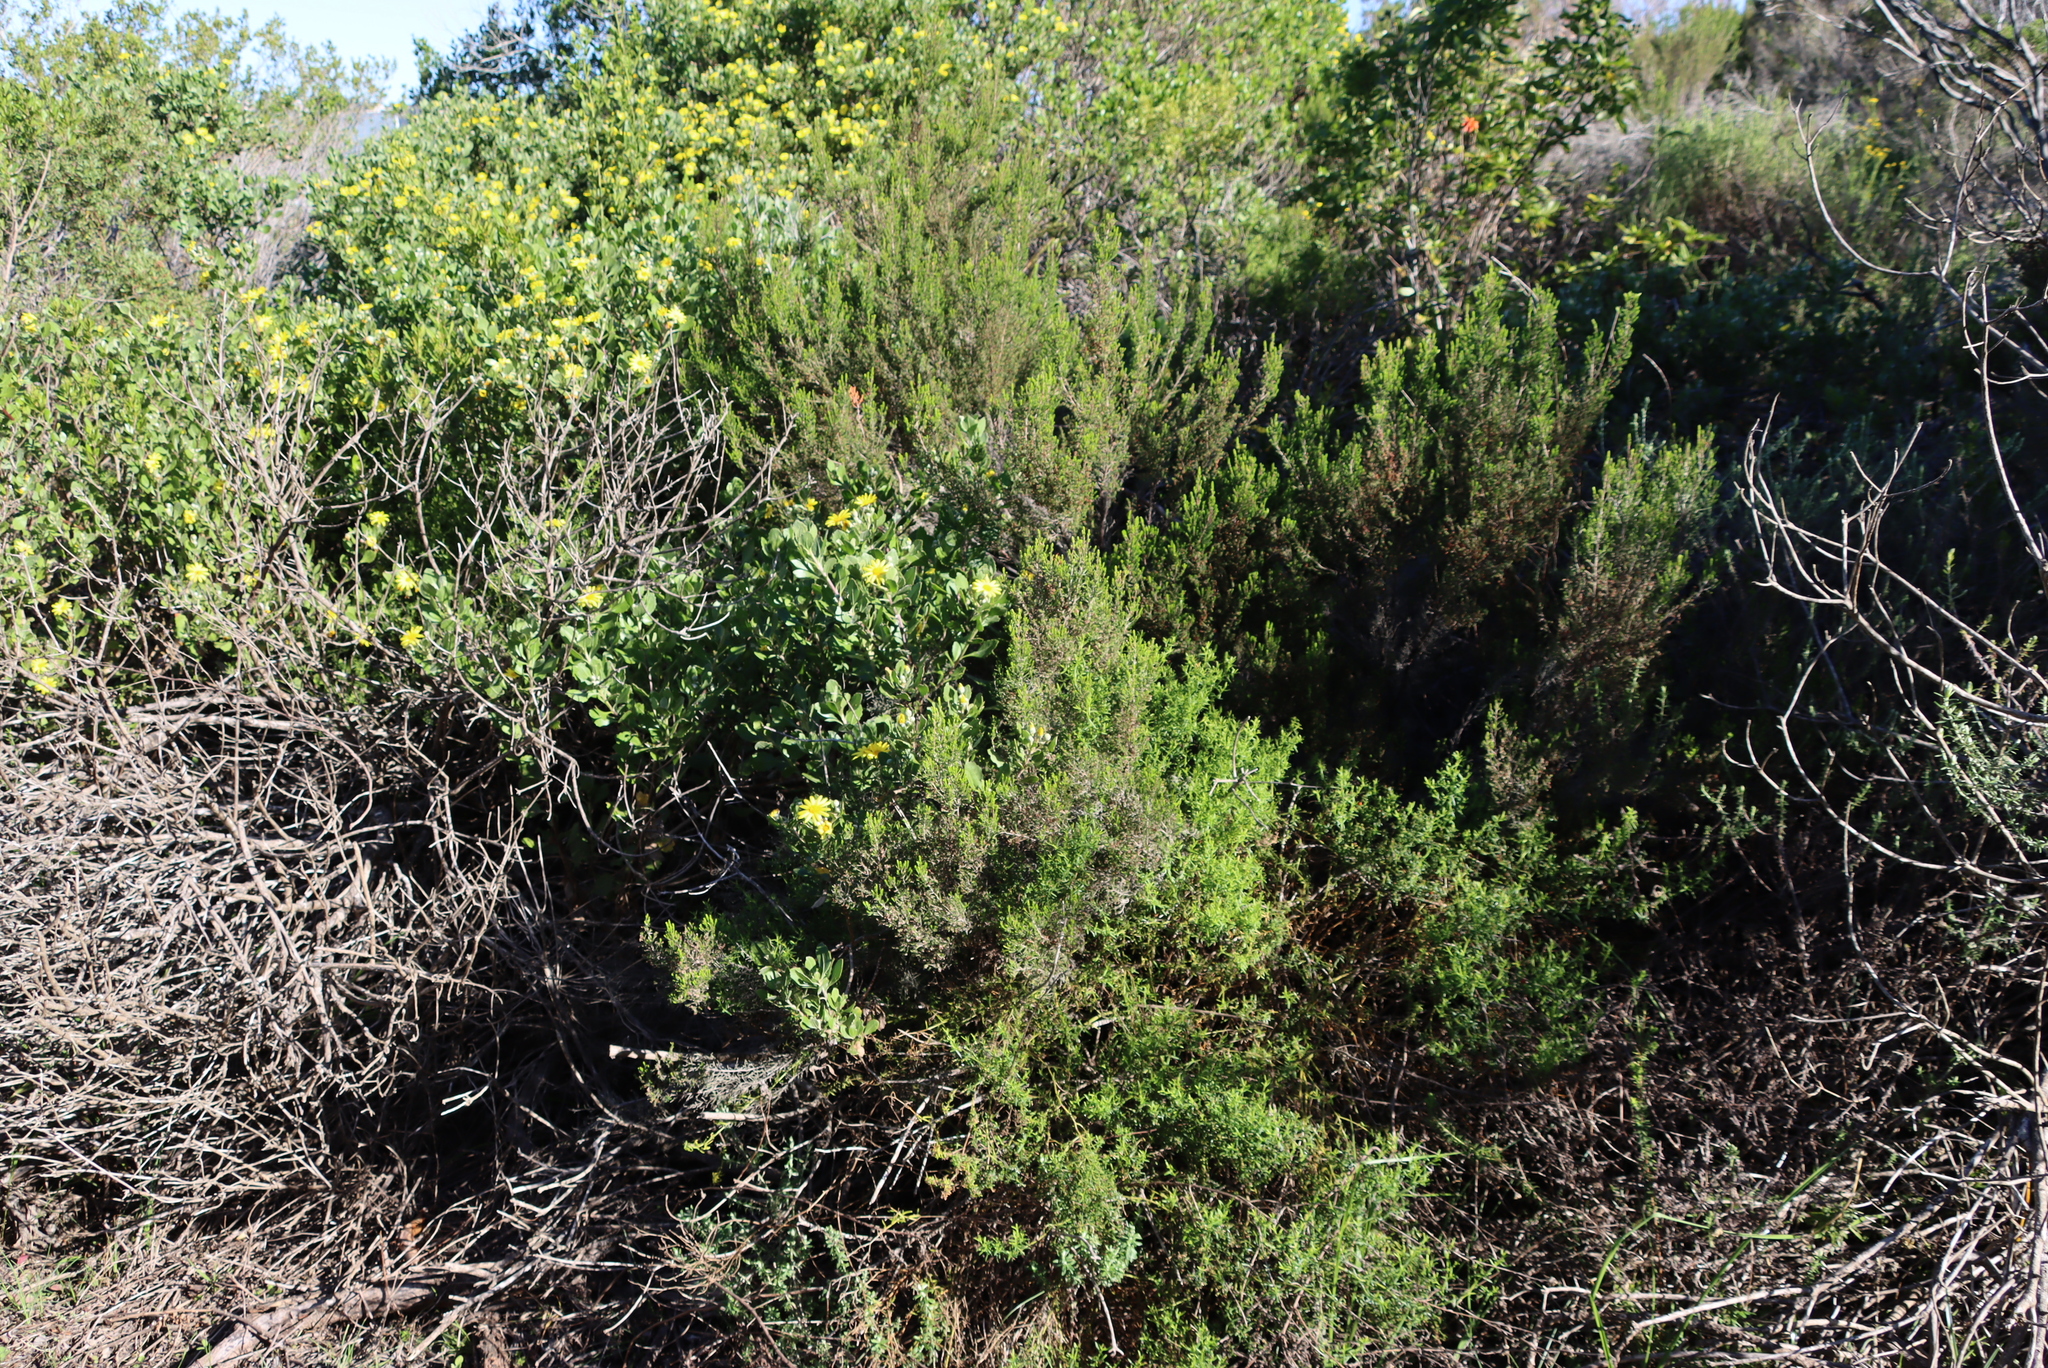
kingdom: Plantae
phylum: Tracheophyta
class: Magnoliopsida
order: Asterales
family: Asteraceae
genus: Osteospermum
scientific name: Osteospermum moniliferum
